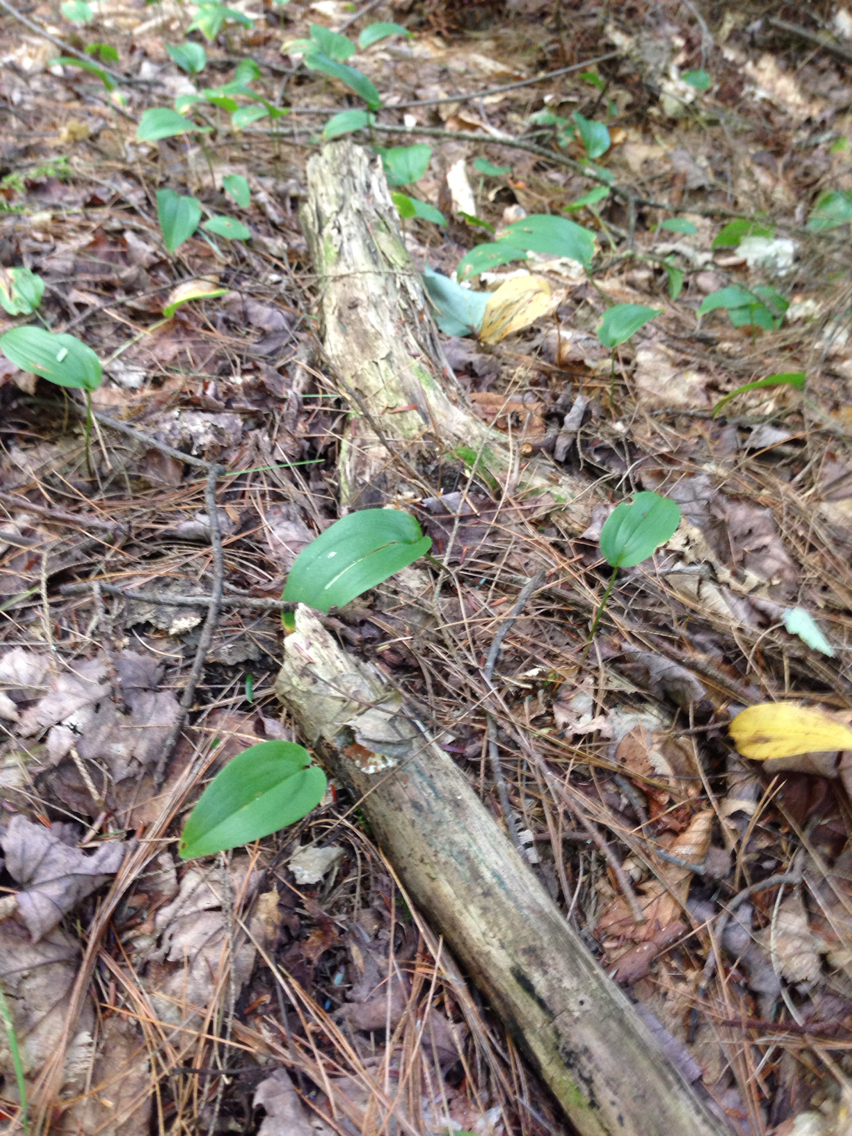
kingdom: Plantae
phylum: Tracheophyta
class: Liliopsida
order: Asparagales
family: Asparagaceae
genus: Maianthemum
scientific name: Maianthemum canadense
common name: False lily-of-the-valley
